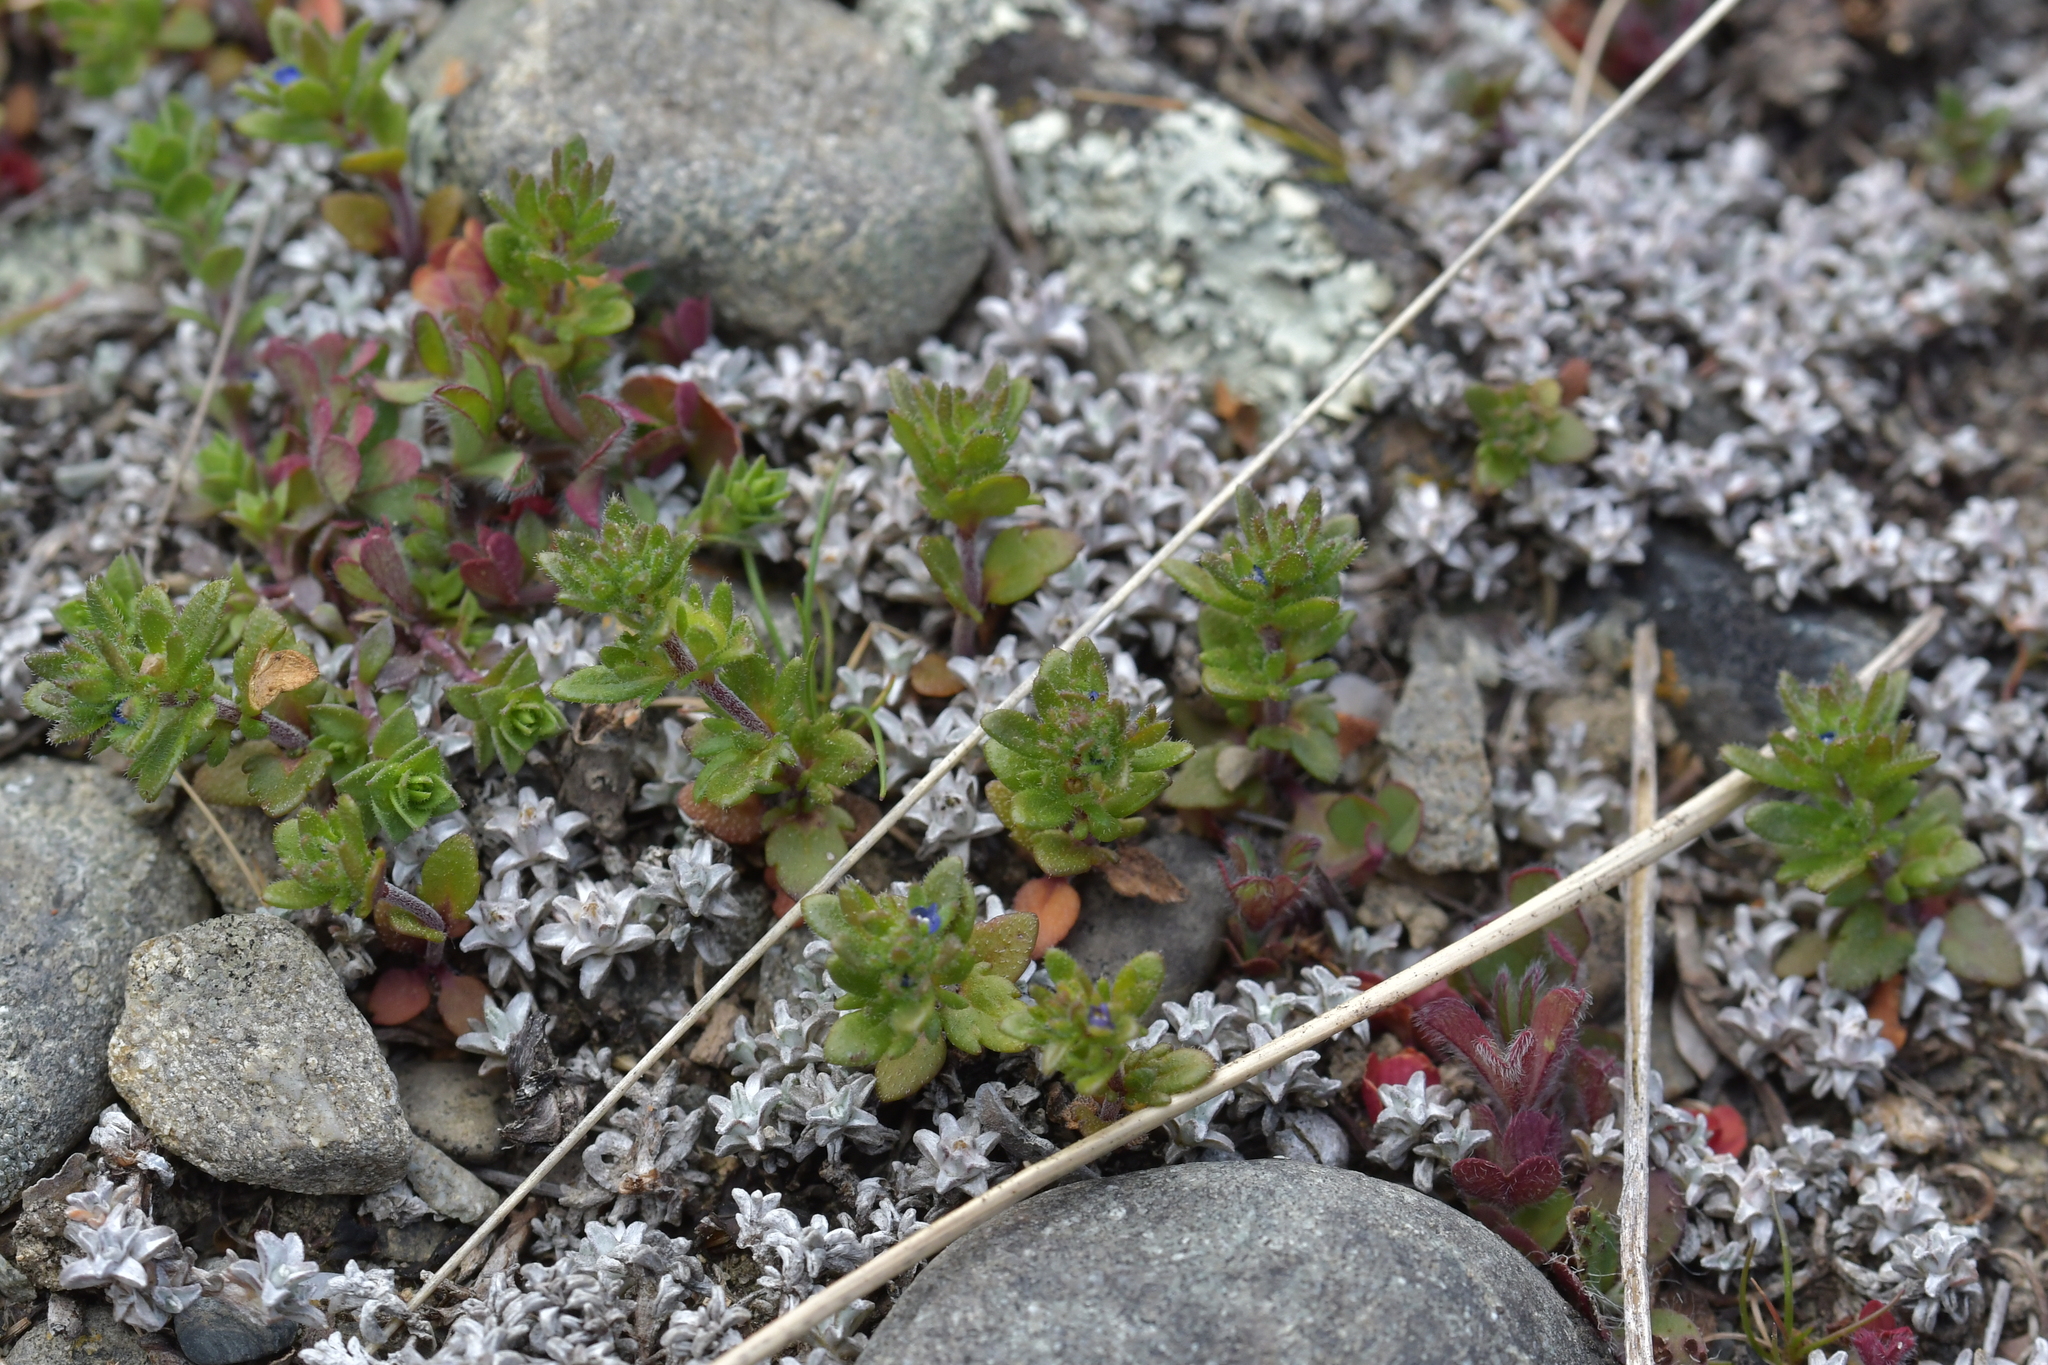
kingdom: Plantae
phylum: Tracheophyta
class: Magnoliopsida
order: Lamiales
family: Plantaginaceae
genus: Veronica
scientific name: Veronica verna
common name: Spring speedwell
